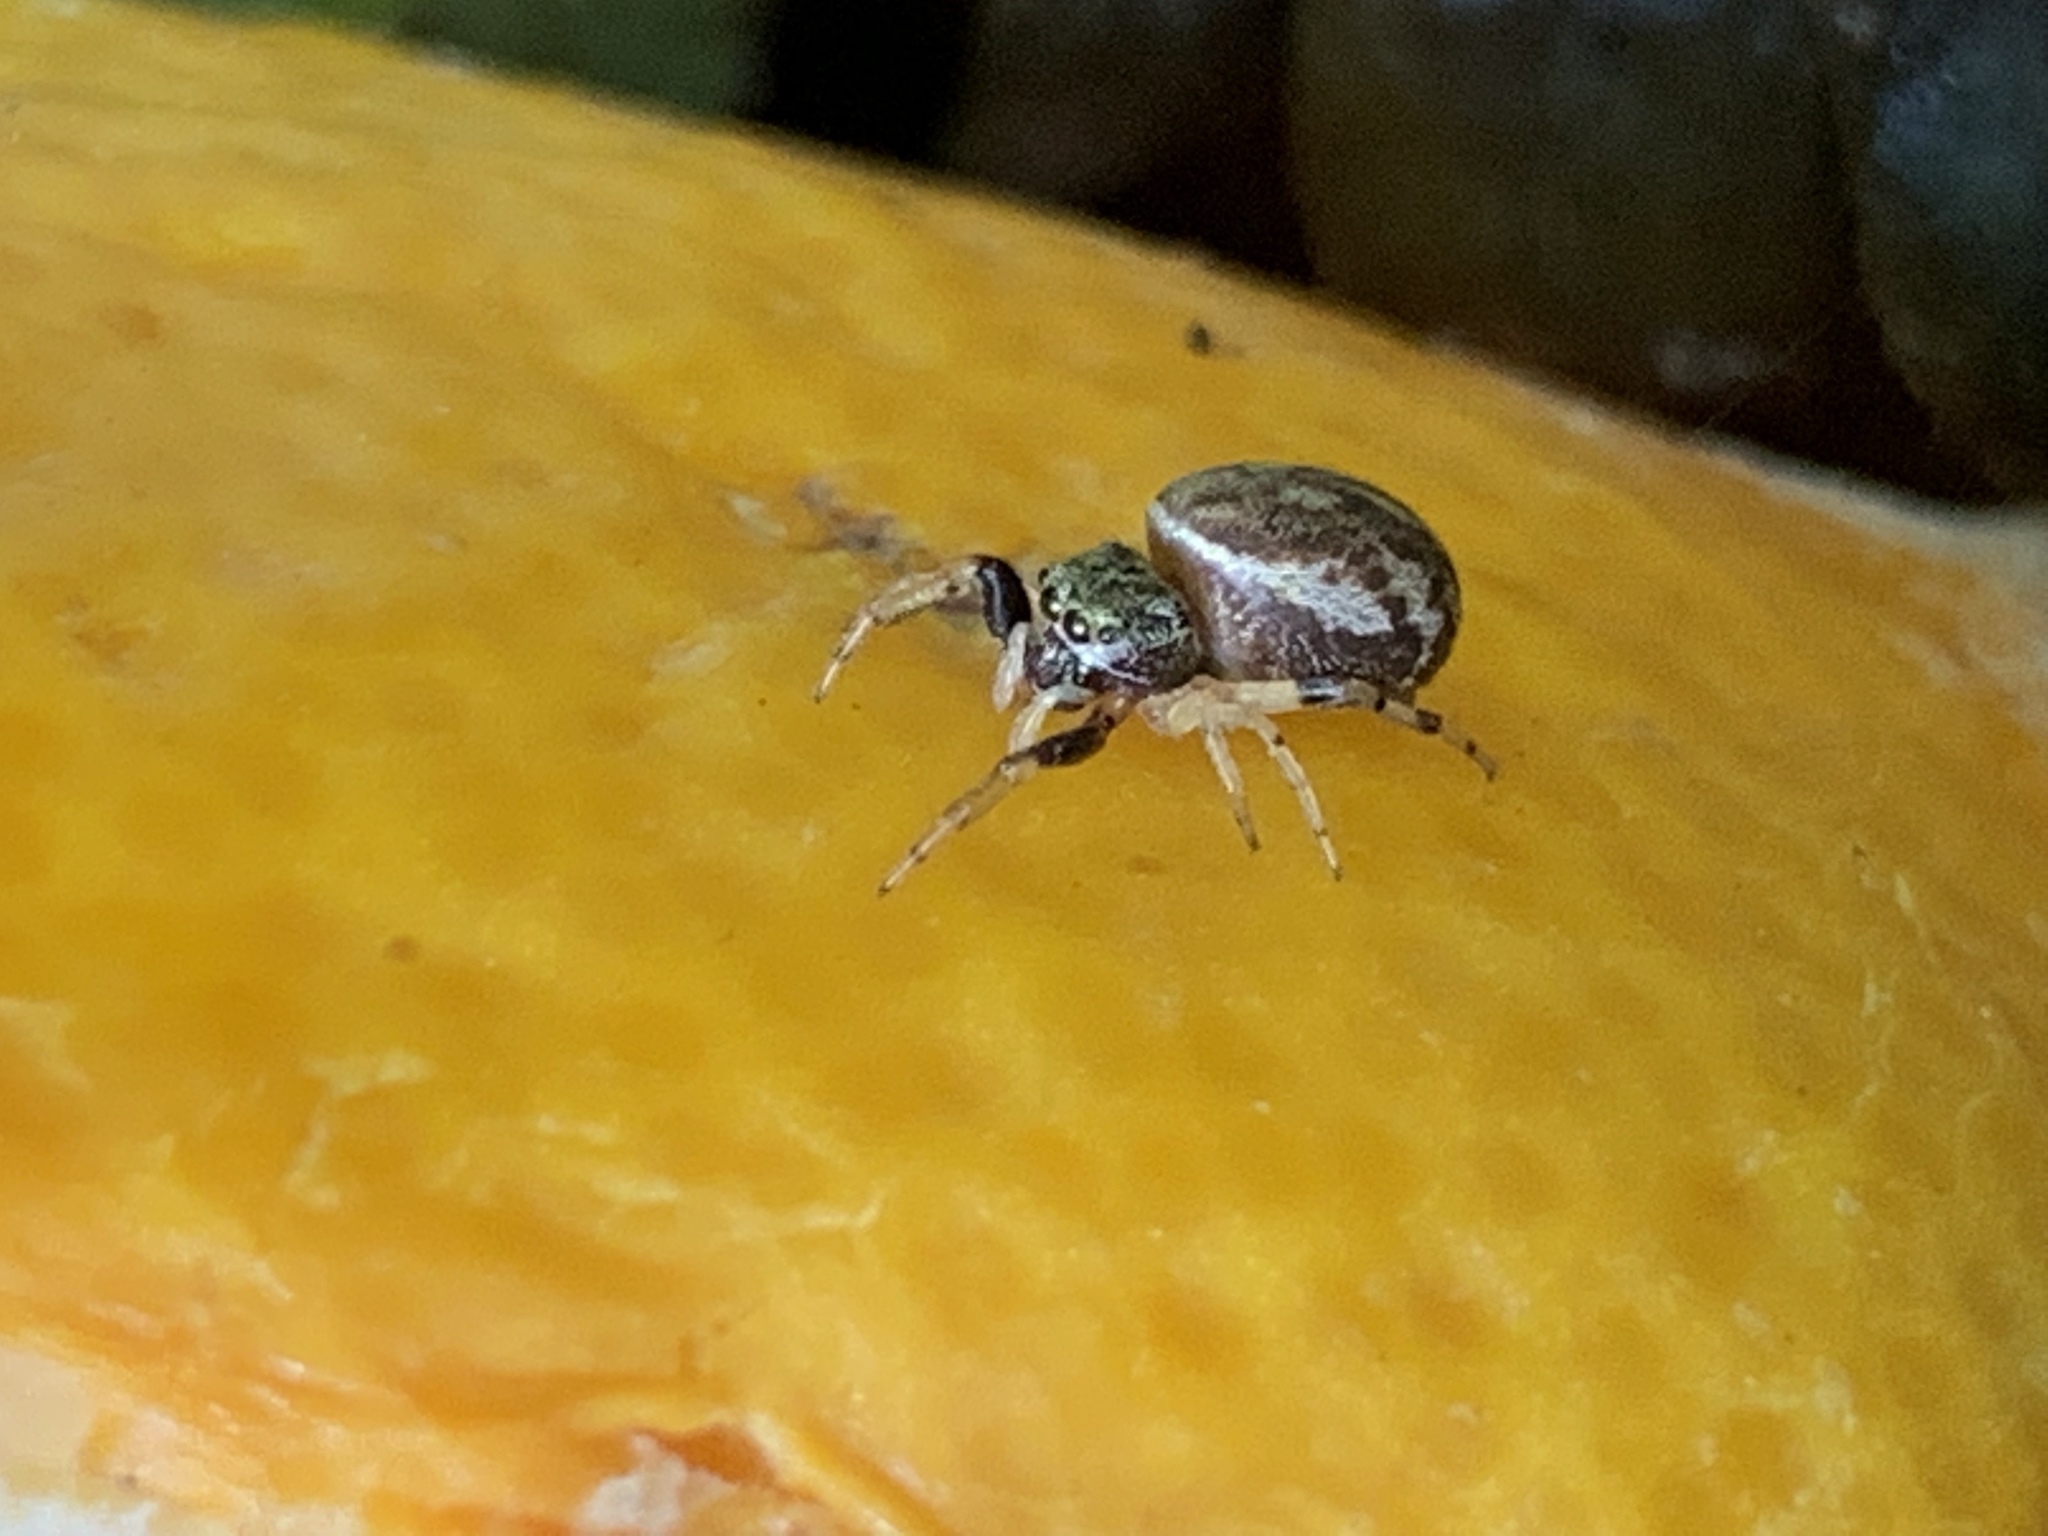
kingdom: Animalia
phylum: Arthropoda
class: Arachnida
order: Araneae
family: Salticidae
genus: Zygoballus
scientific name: Zygoballus rufipes
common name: Jumping spiders
